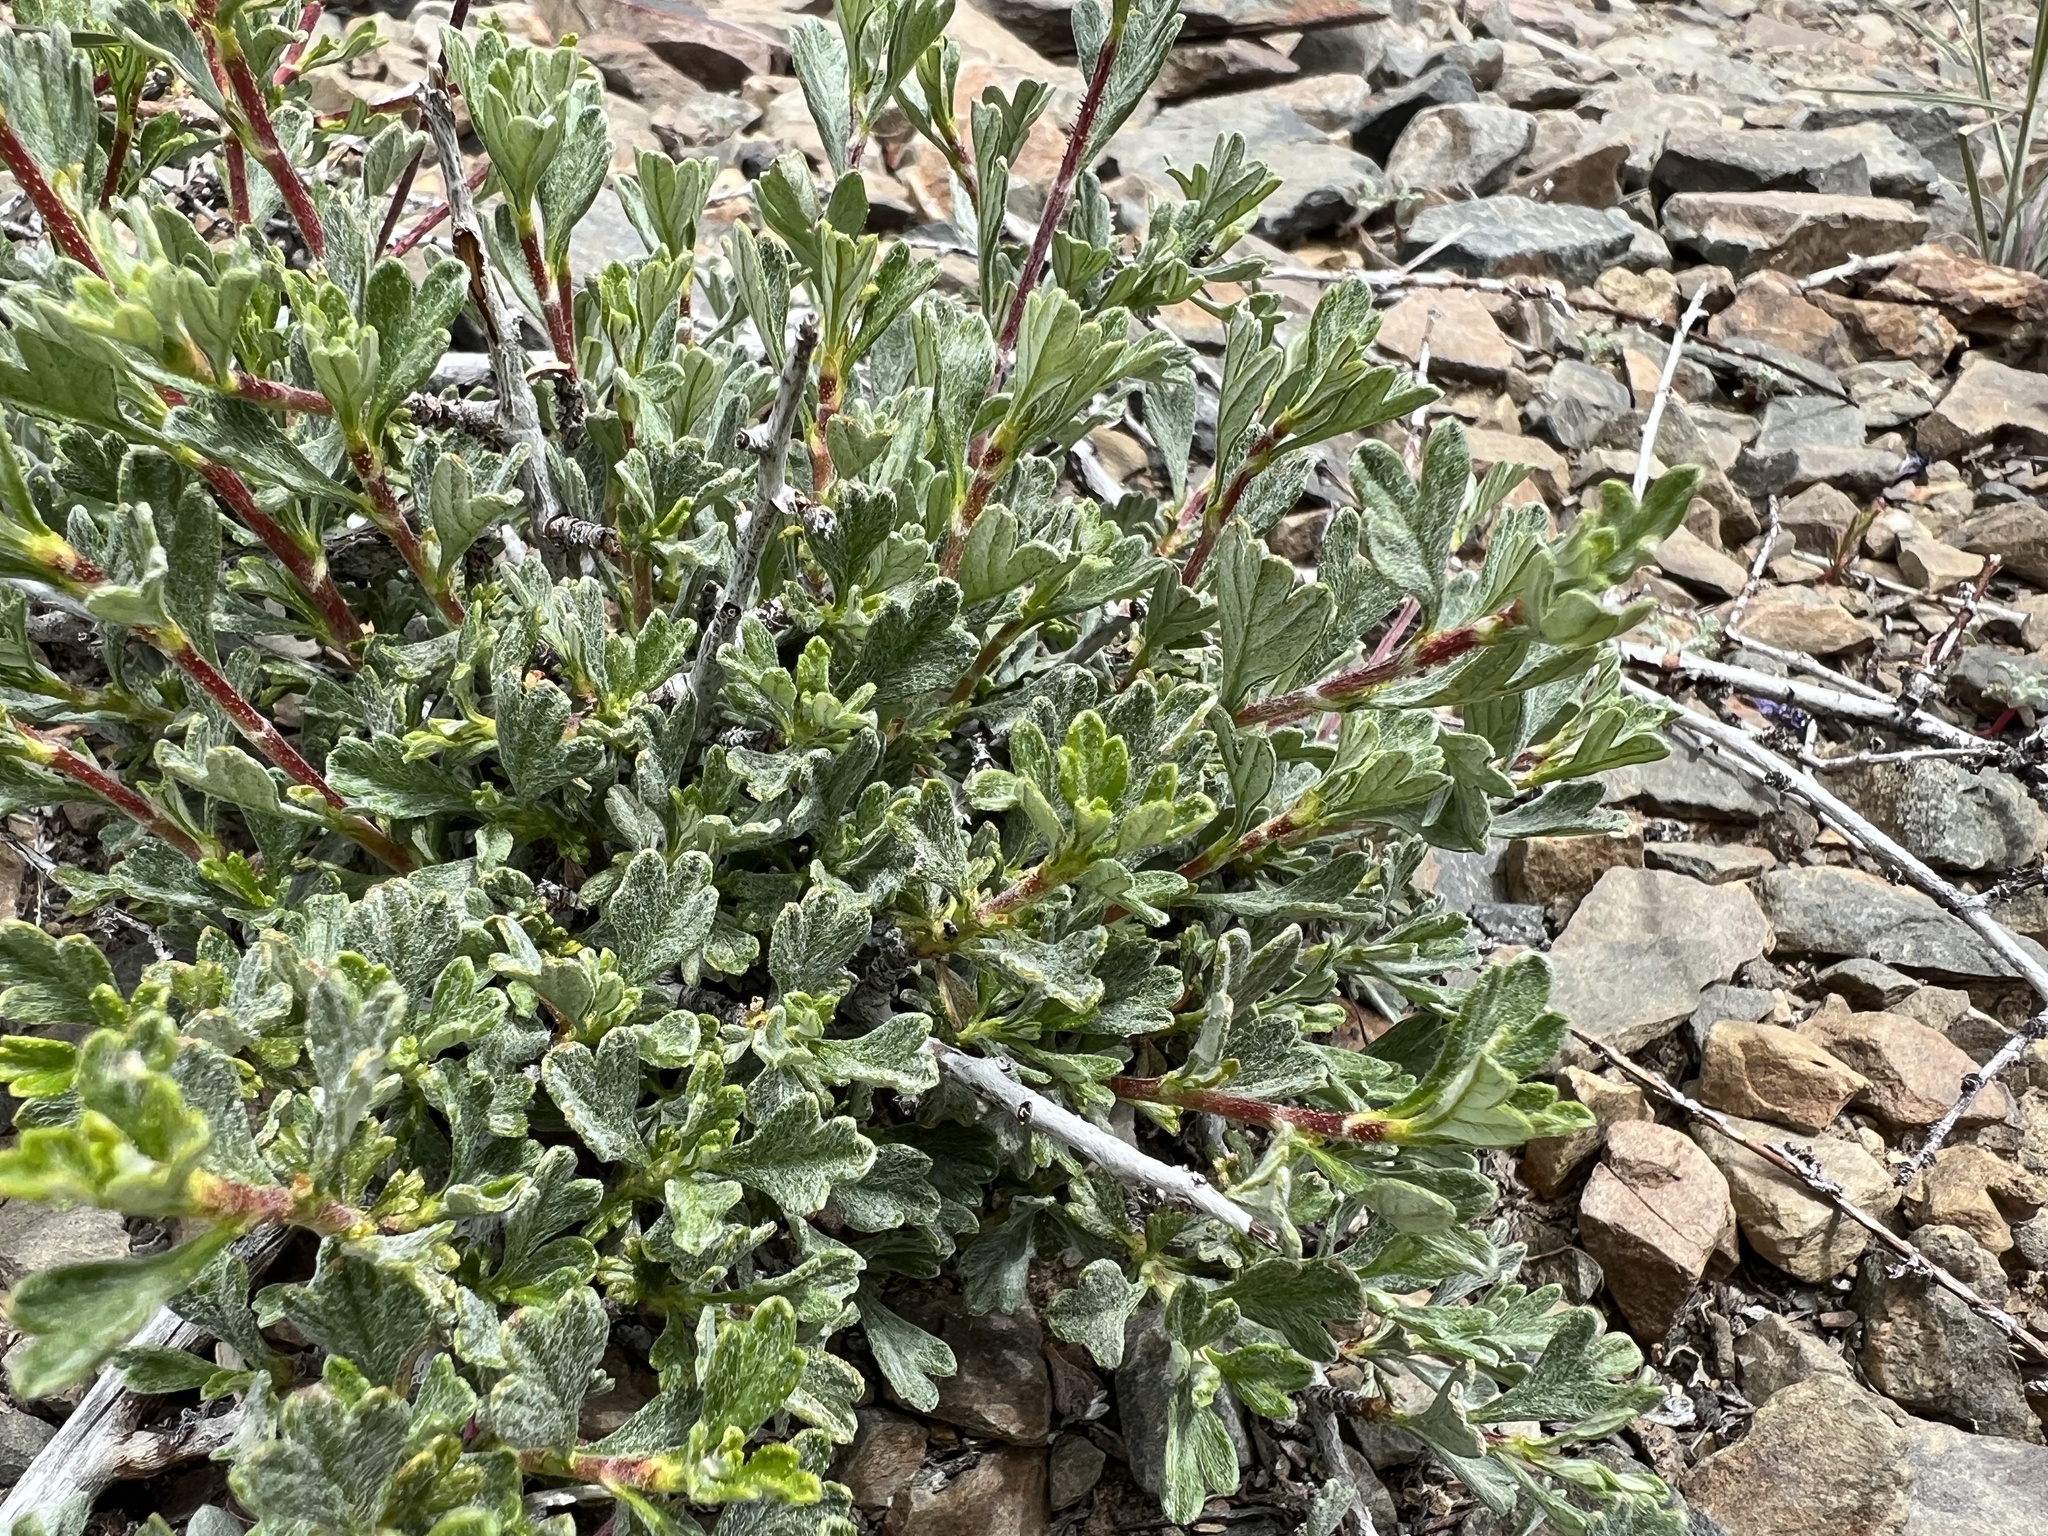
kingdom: Plantae
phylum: Tracheophyta
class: Magnoliopsida
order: Rosales
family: Rosaceae
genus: Purshia
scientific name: Purshia tridentata
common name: Antelope bitterbrush
